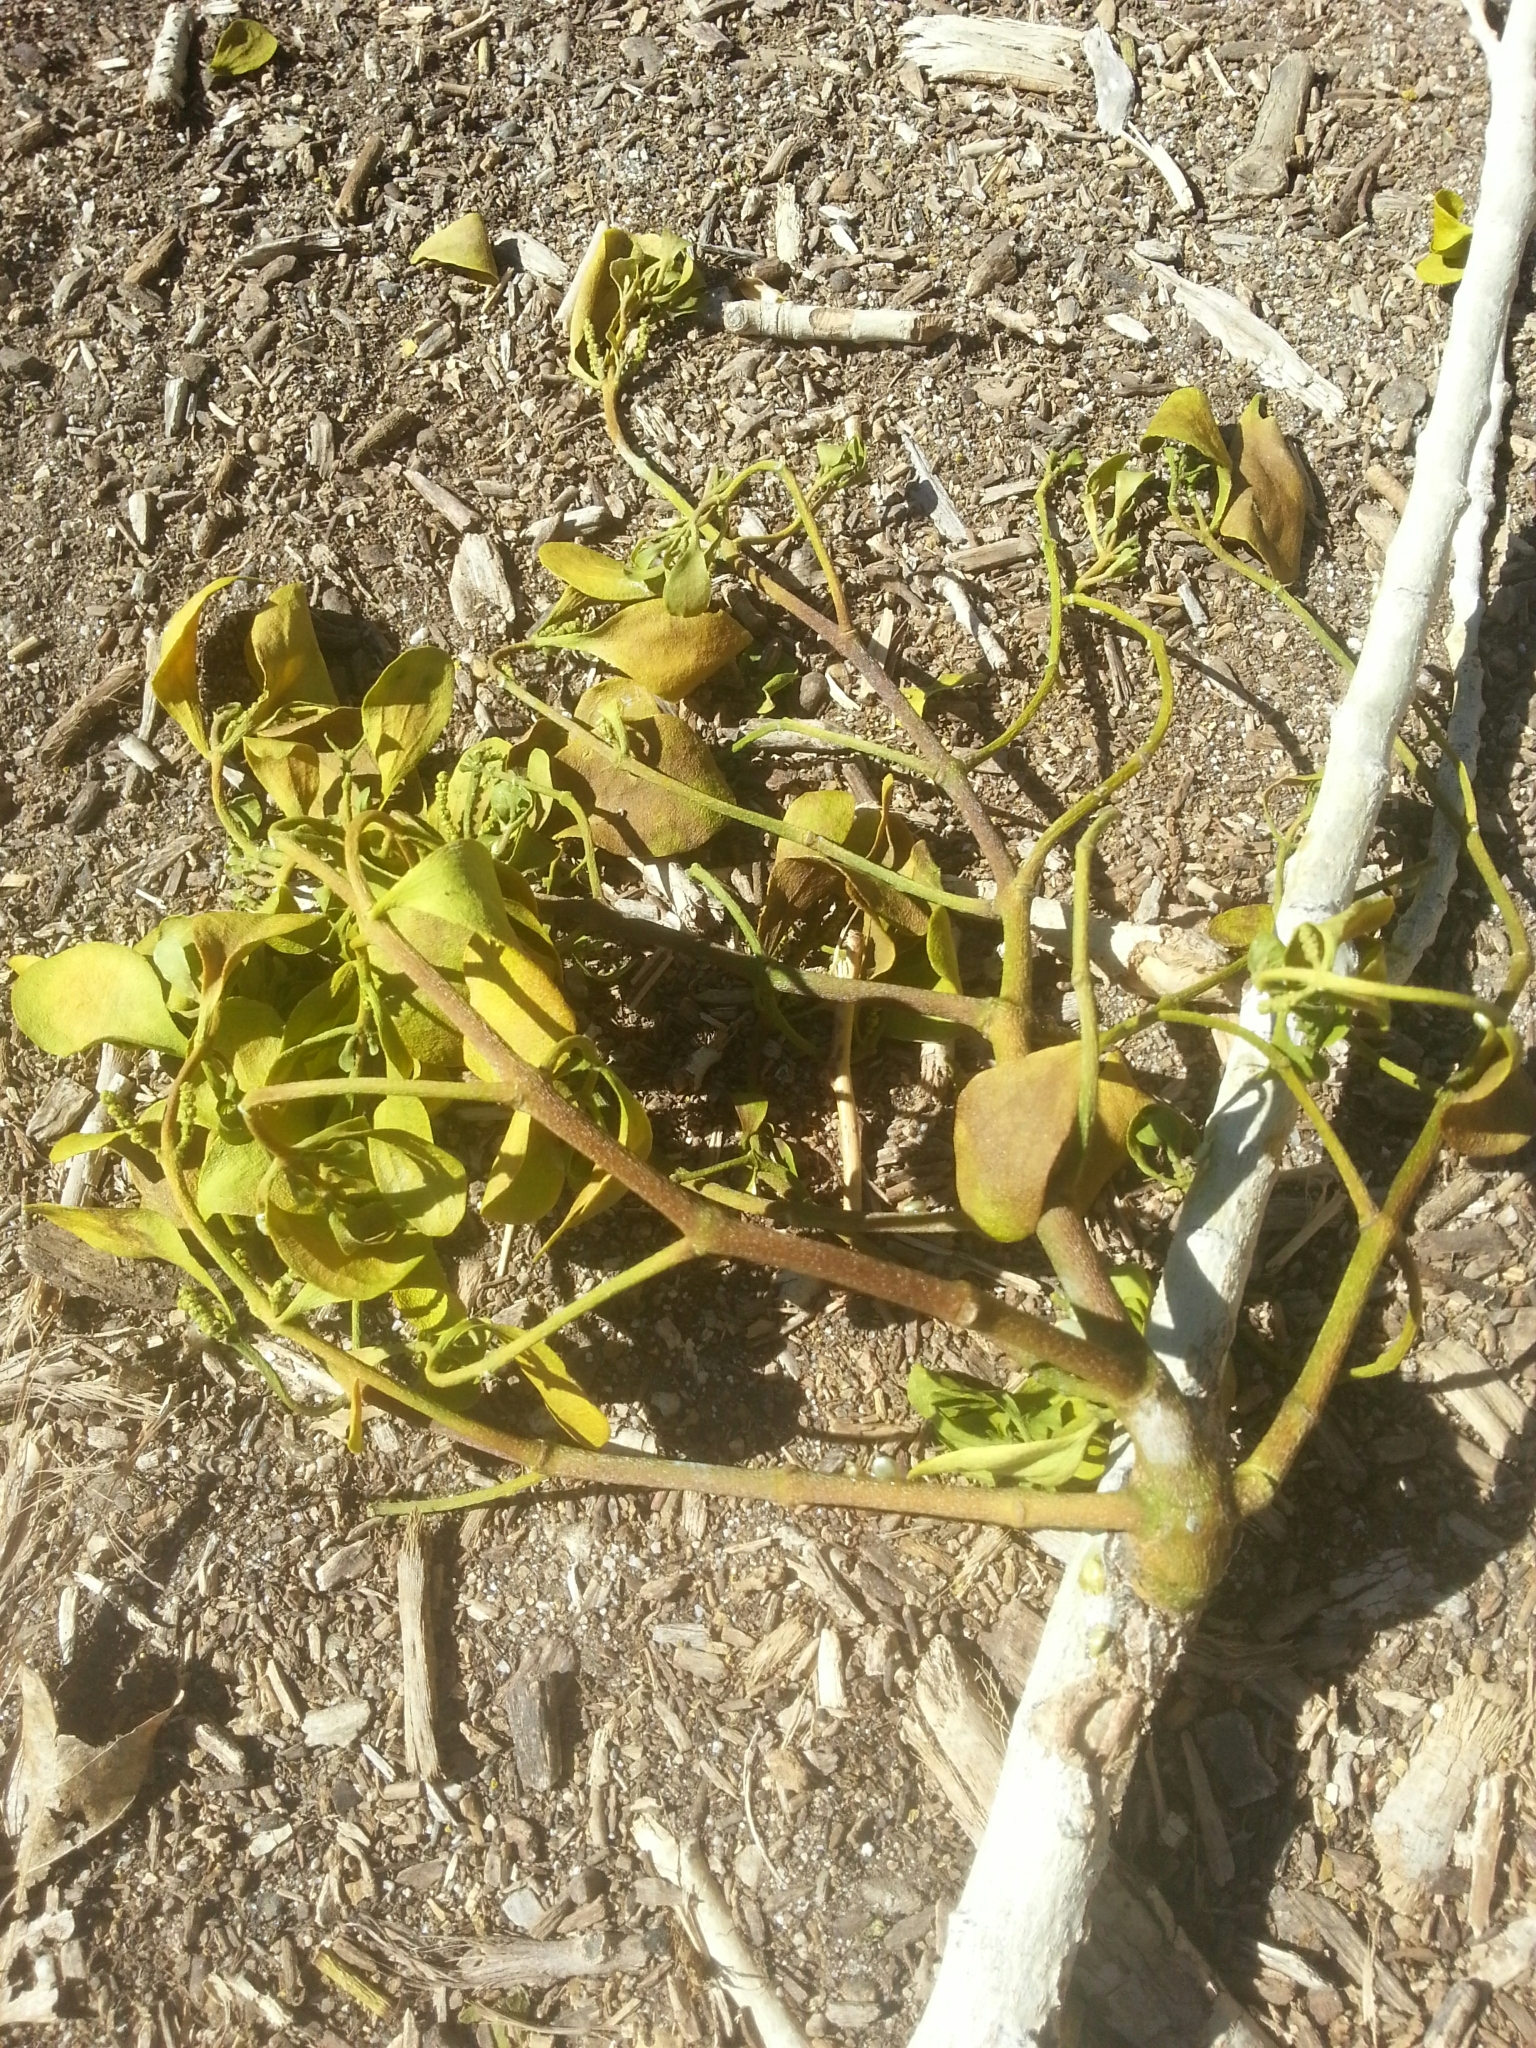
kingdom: Plantae
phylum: Tracheophyta
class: Magnoliopsida
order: Santalales
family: Viscaceae
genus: Phoradendron
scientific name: Phoradendron
